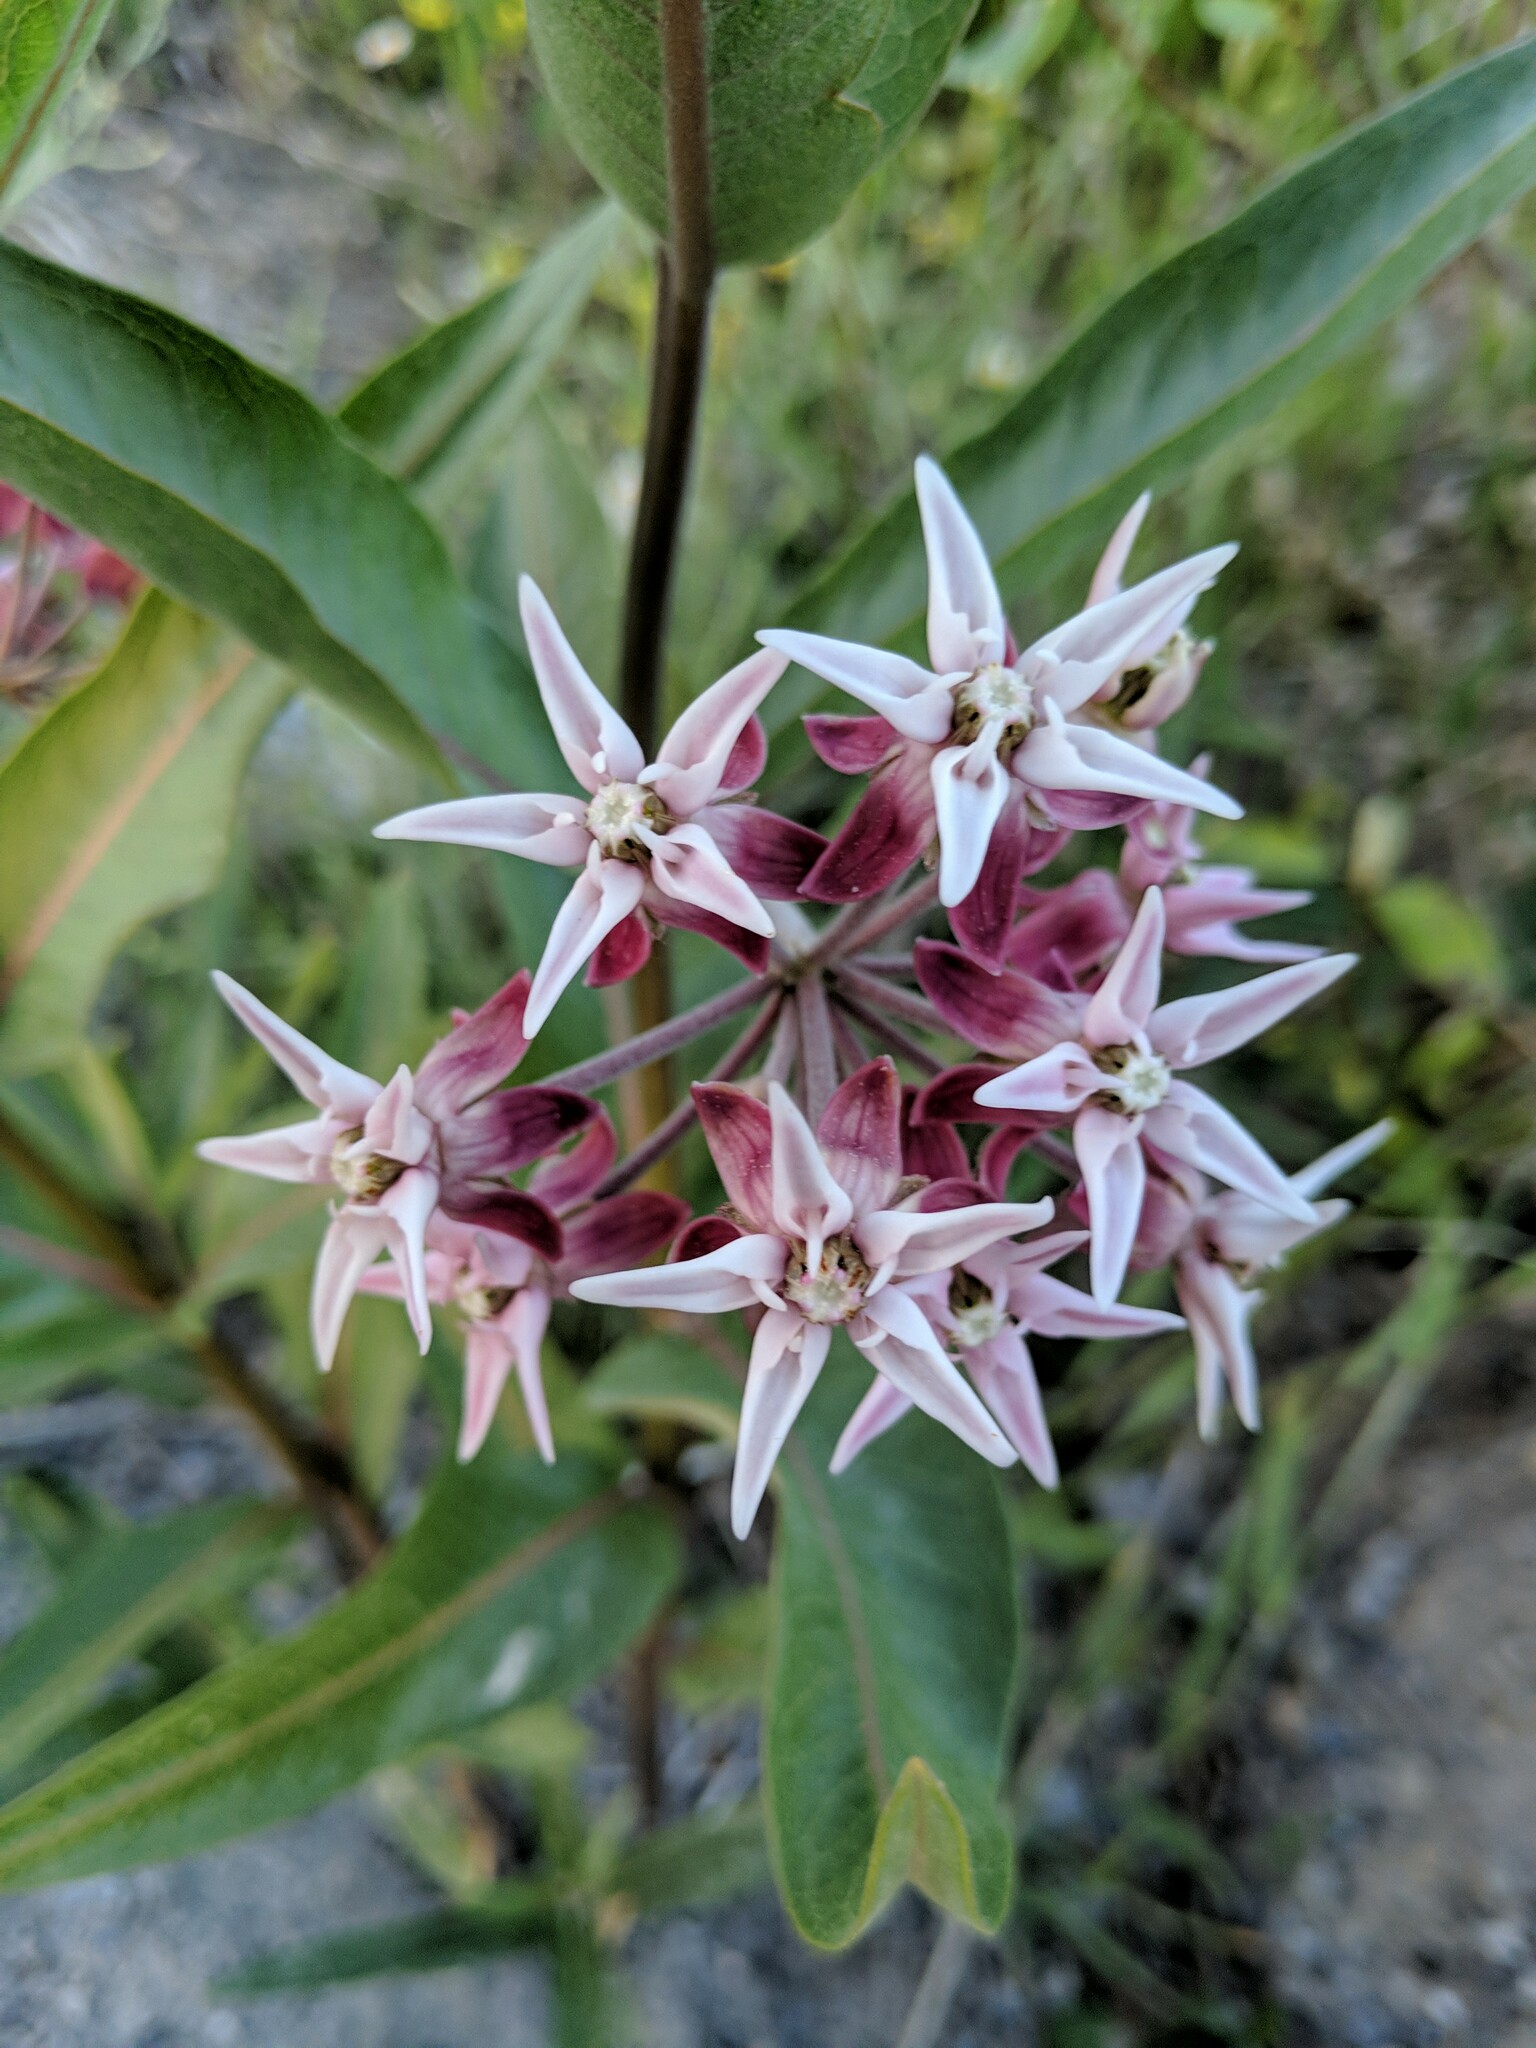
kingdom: Plantae
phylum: Tracheophyta
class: Magnoliopsida
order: Gentianales
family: Apocynaceae
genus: Asclepias
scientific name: Asclepias speciosa
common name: Showy milkweed
